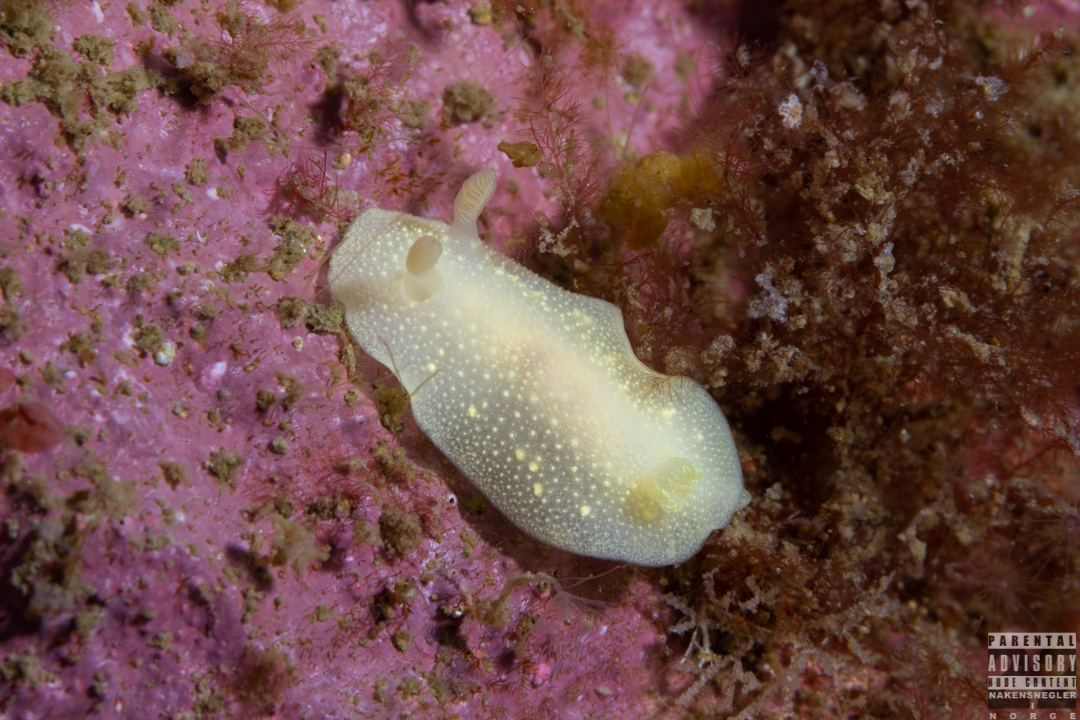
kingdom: Animalia
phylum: Mollusca
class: Gastropoda
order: Nudibranchia
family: Cadlinidae
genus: Cadlina
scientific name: Cadlina laevis
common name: White atlantic cadlina
